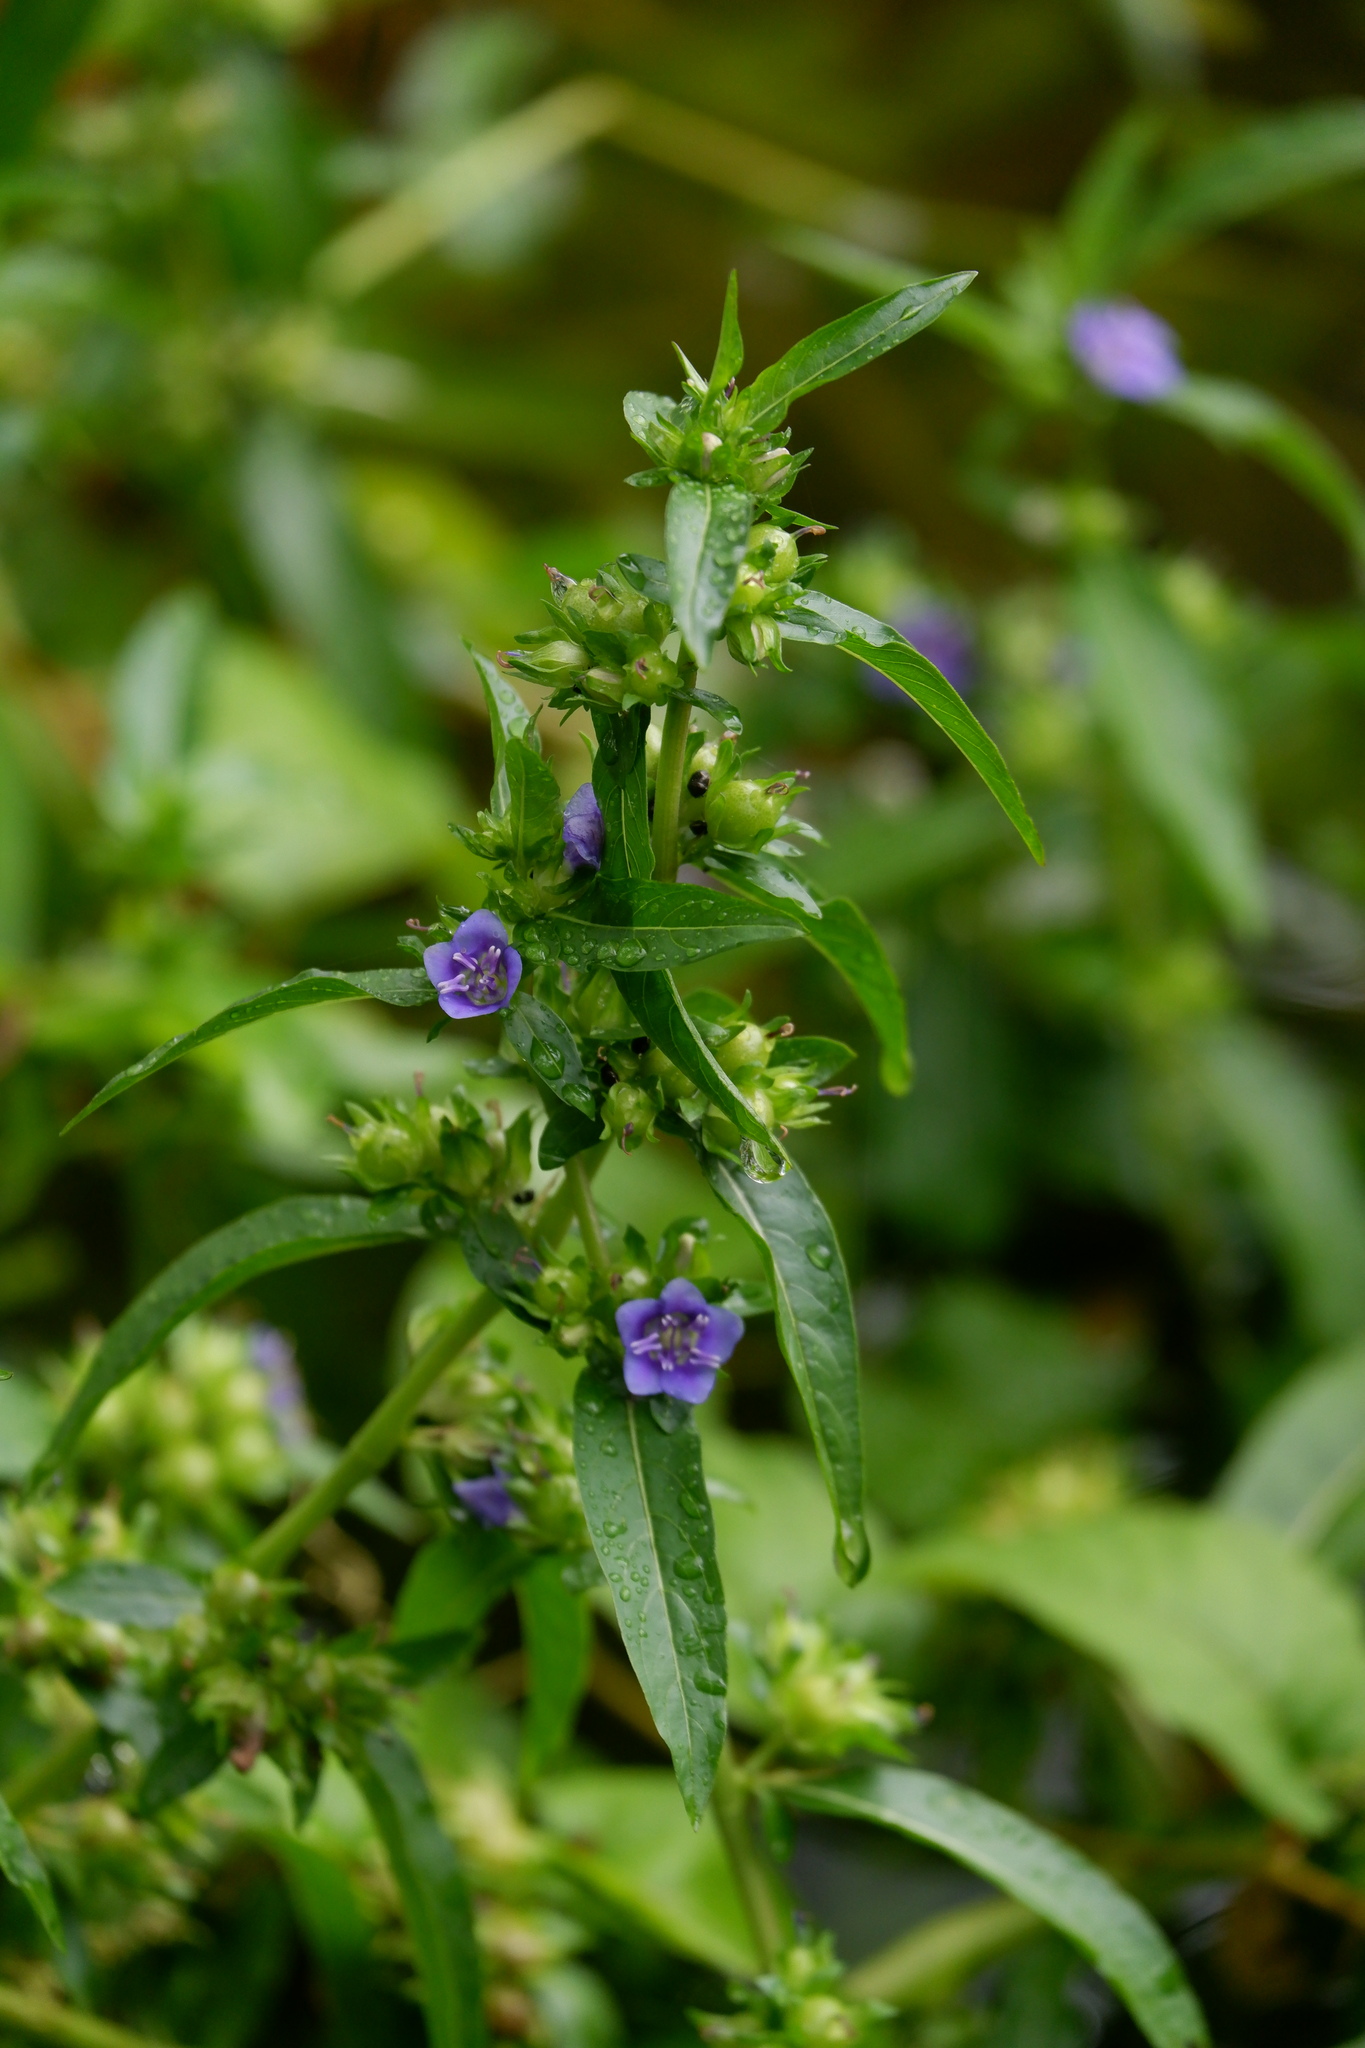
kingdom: Plantae
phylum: Tracheophyta
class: Magnoliopsida
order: Solanales
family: Hydroleaceae
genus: Hydrolea
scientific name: Hydrolea uniflora
